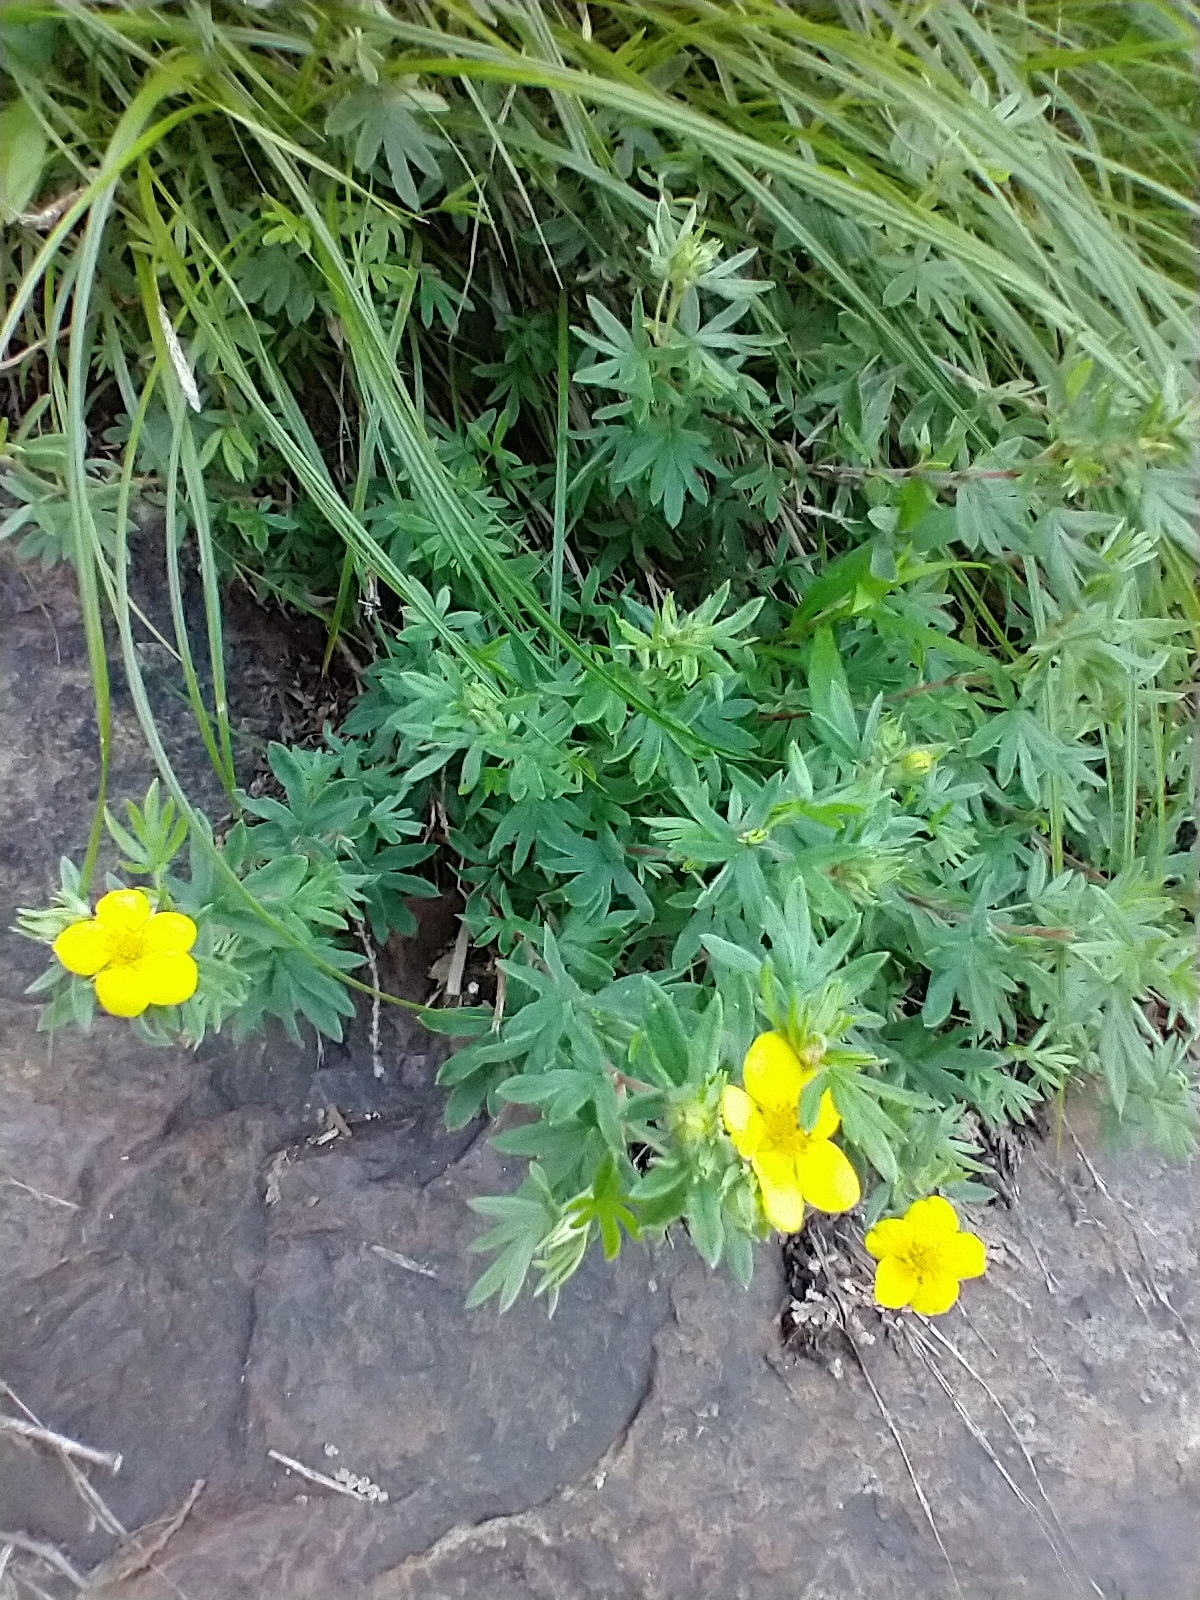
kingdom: Plantae
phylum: Tracheophyta
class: Magnoliopsida
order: Rosales
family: Rosaceae
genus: Dasiphora
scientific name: Dasiphora fruticosa
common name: Shrubby cinquefoil
